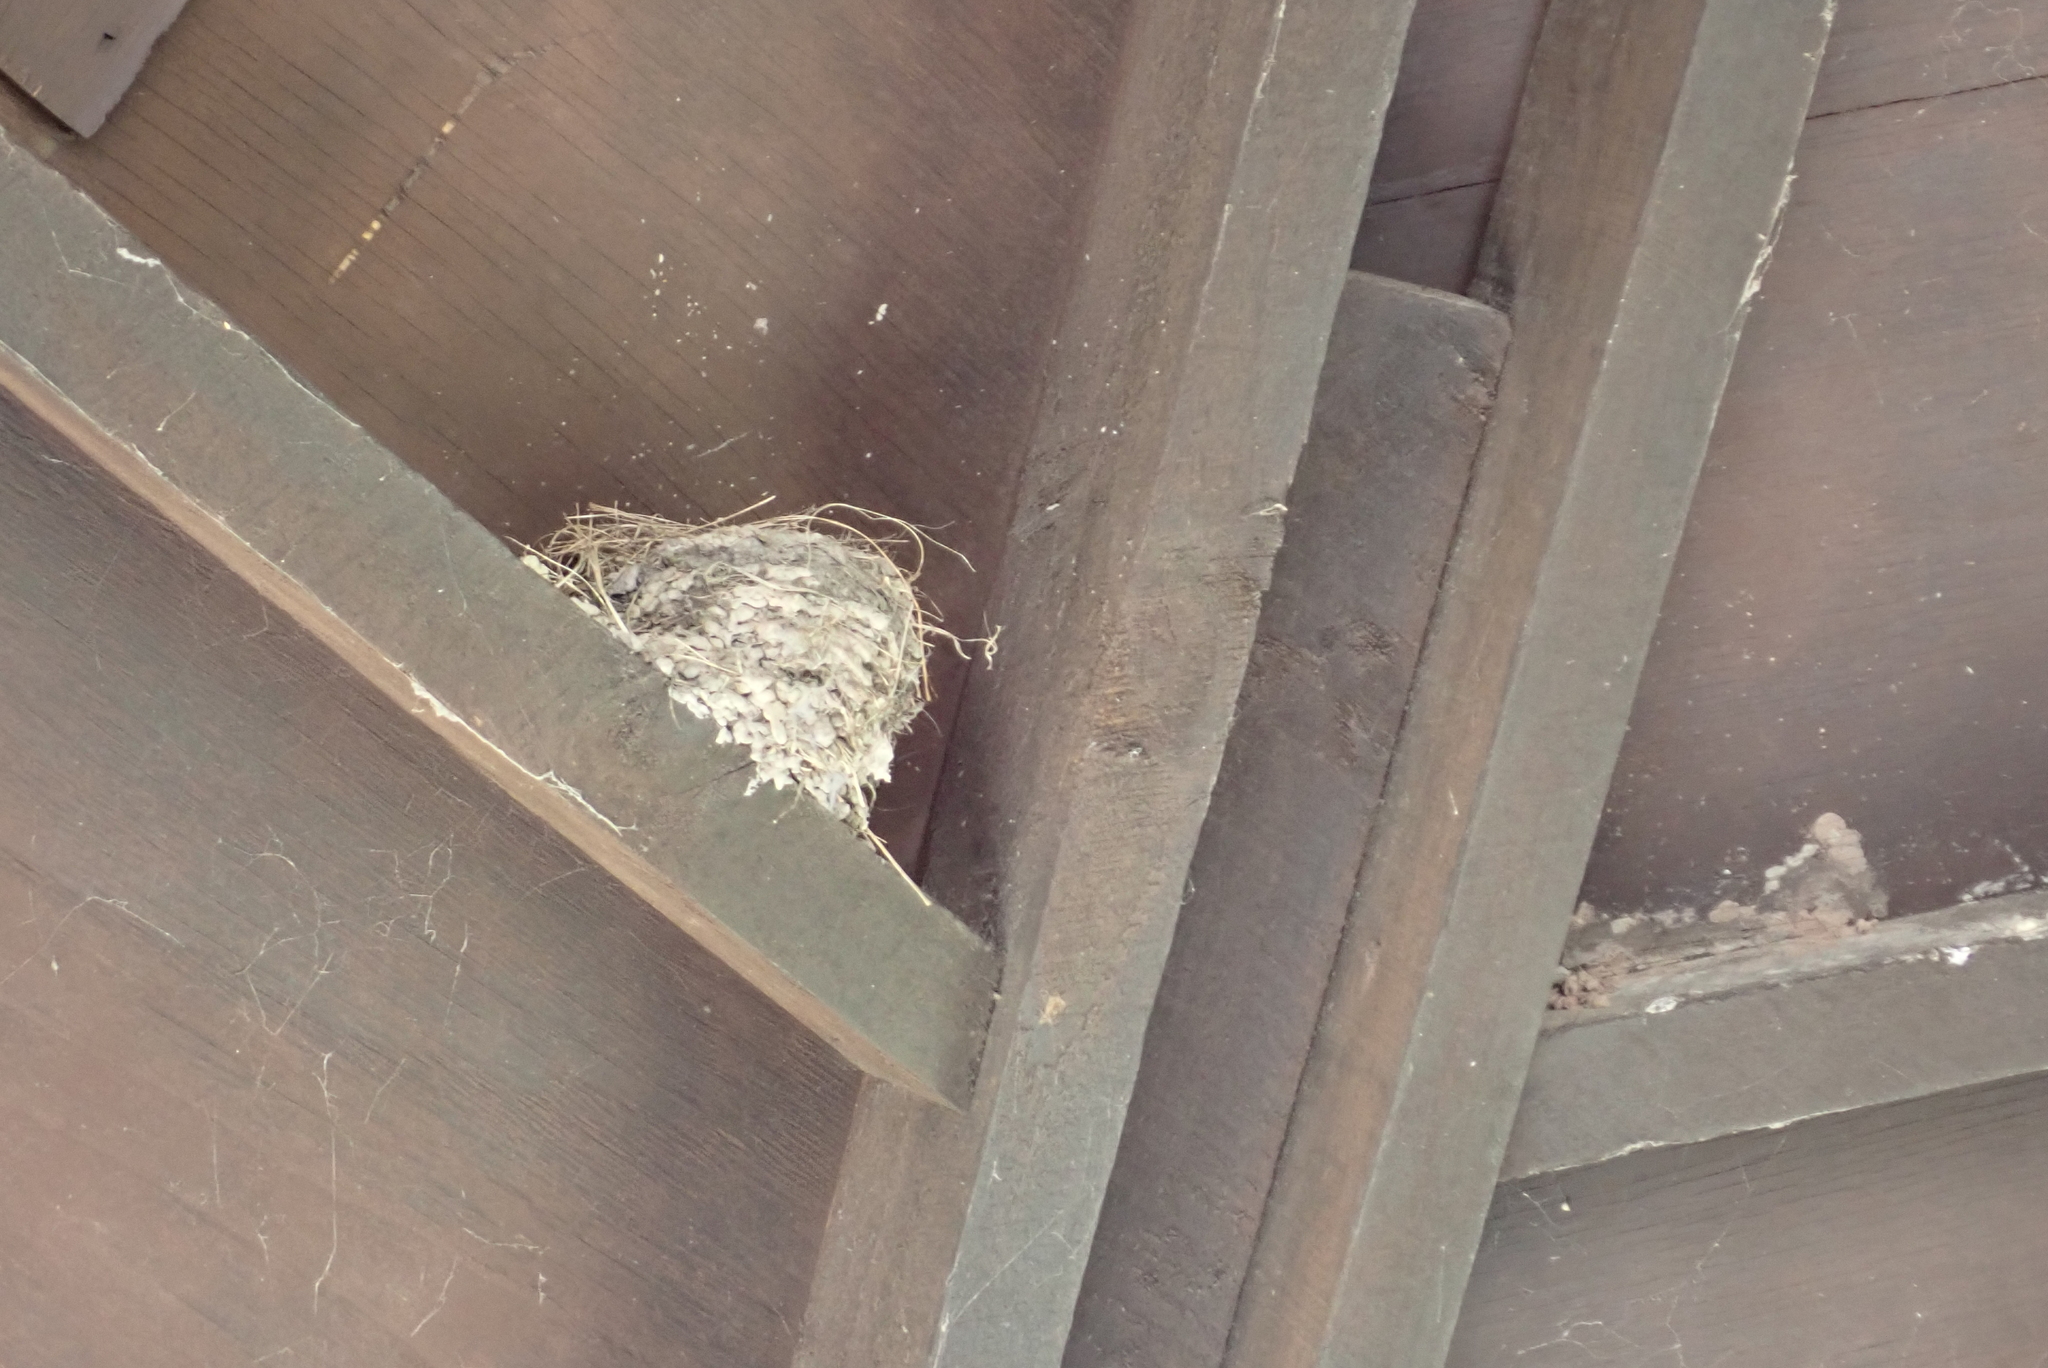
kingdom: Animalia
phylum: Chordata
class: Aves
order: Passeriformes
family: Hirundinidae
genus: Hirundo
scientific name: Hirundo neoxena
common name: Welcome swallow
